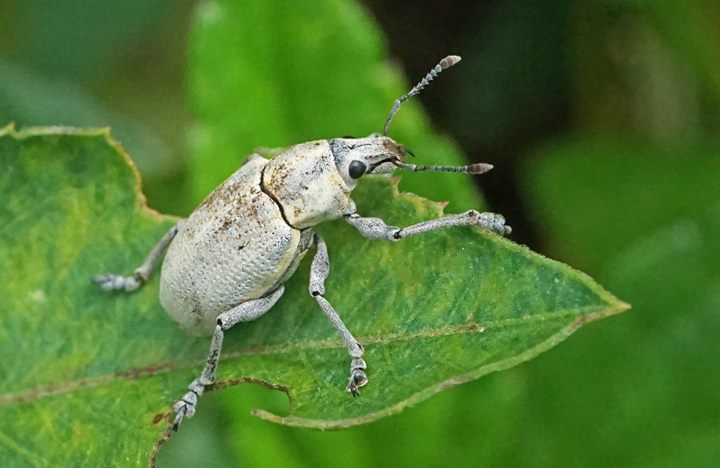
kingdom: Animalia
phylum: Arthropoda
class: Insecta
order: Coleoptera
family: Curculionidae
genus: Pachnaeus
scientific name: Pachnaeus litus
